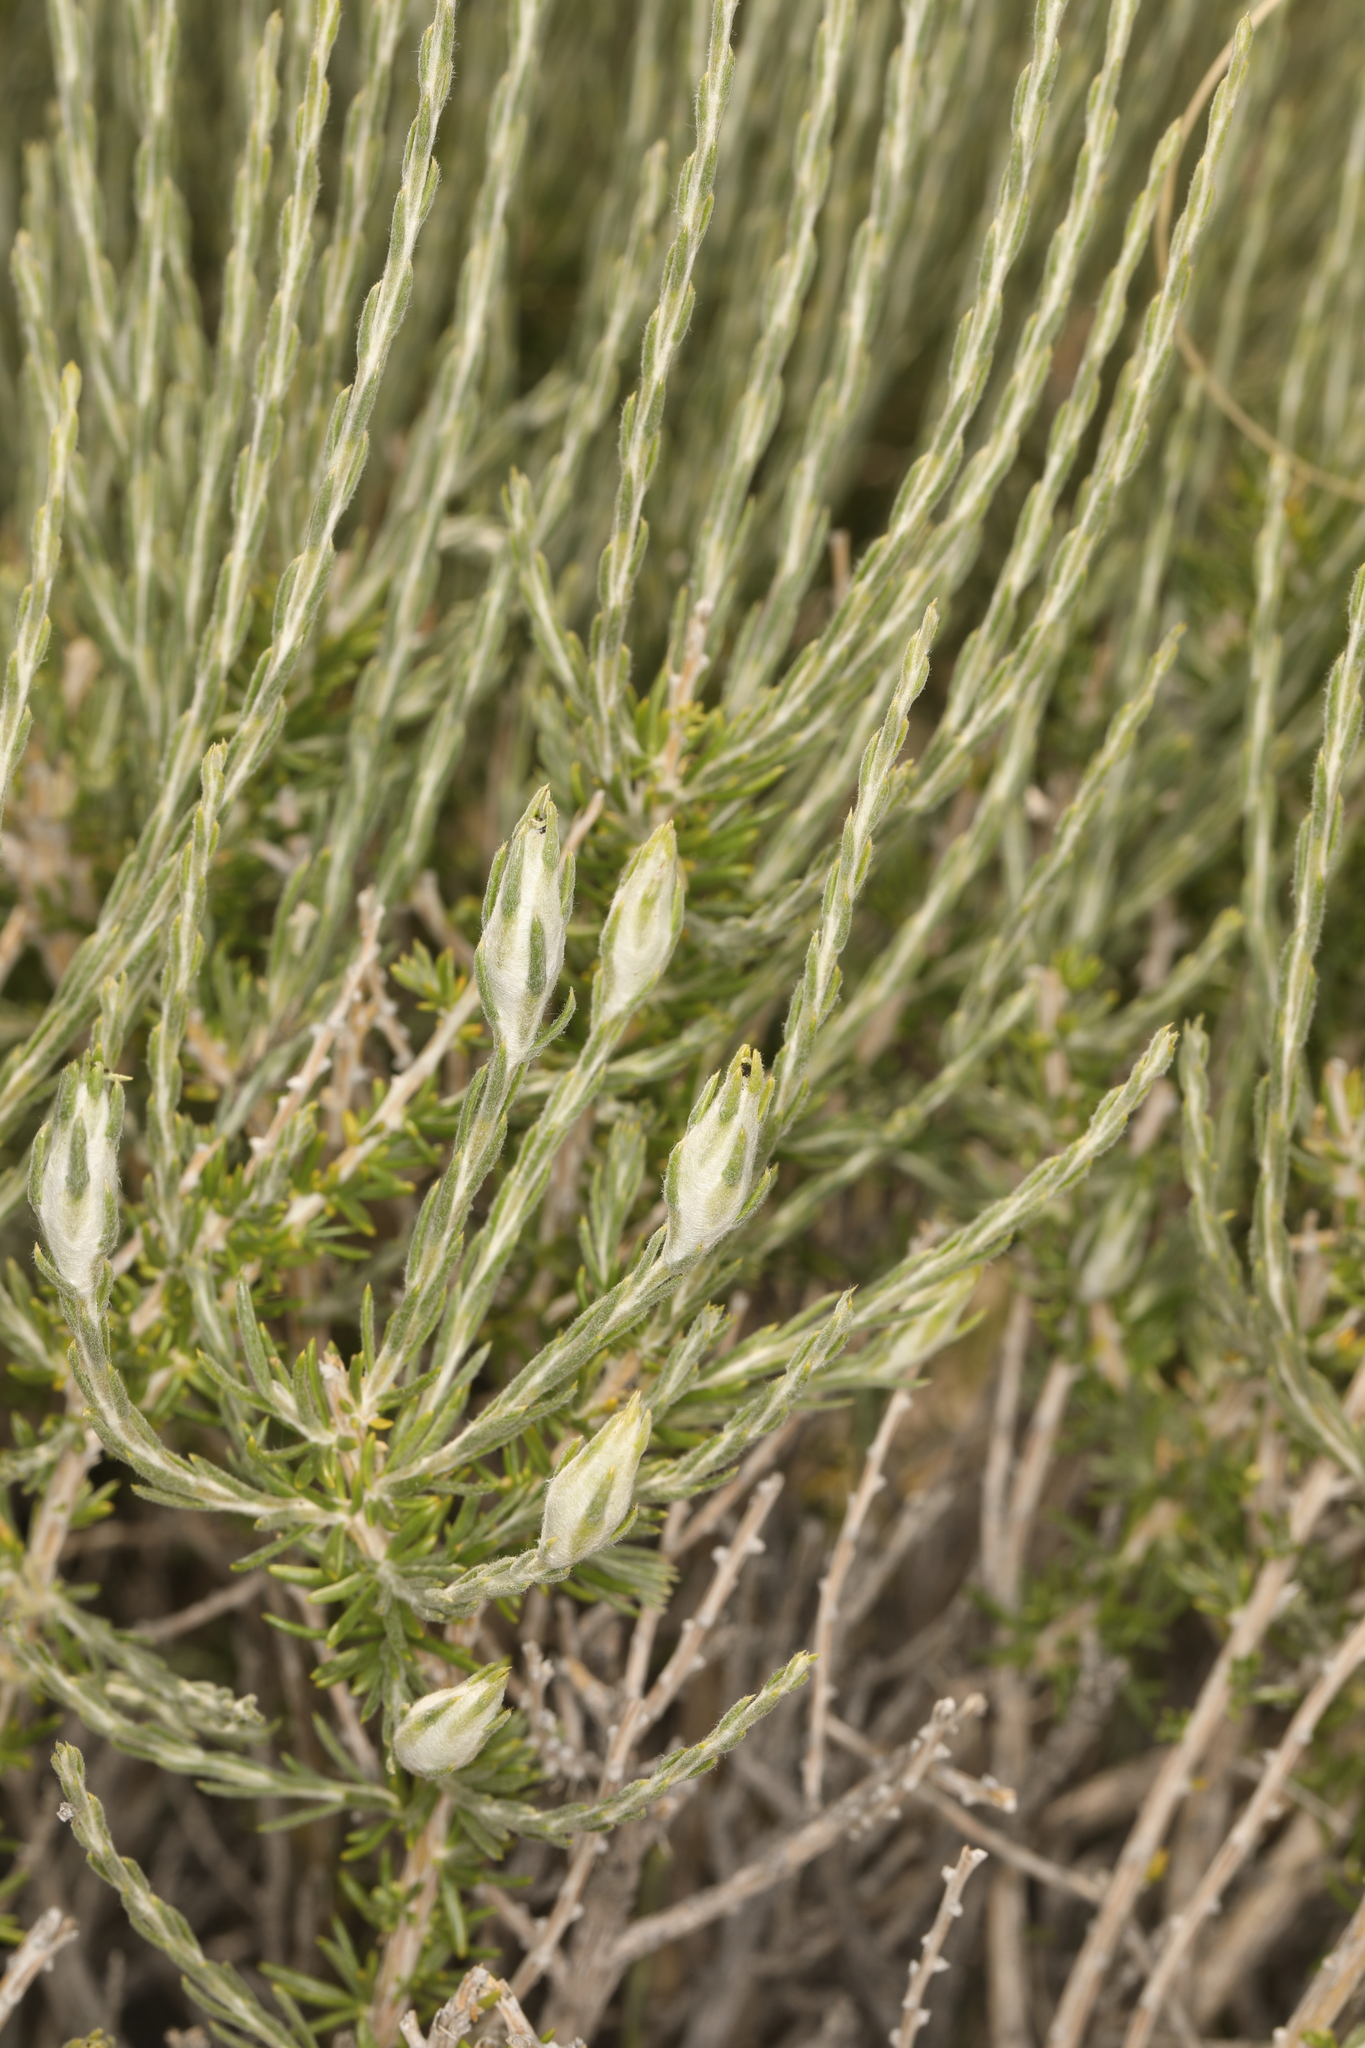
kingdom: Plantae
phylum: Tracheophyta
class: Magnoliopsida
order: Asterales
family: Asteraceae
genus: Tetradymia
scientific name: Tetradymia glabrata
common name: Smooth tetradymia
